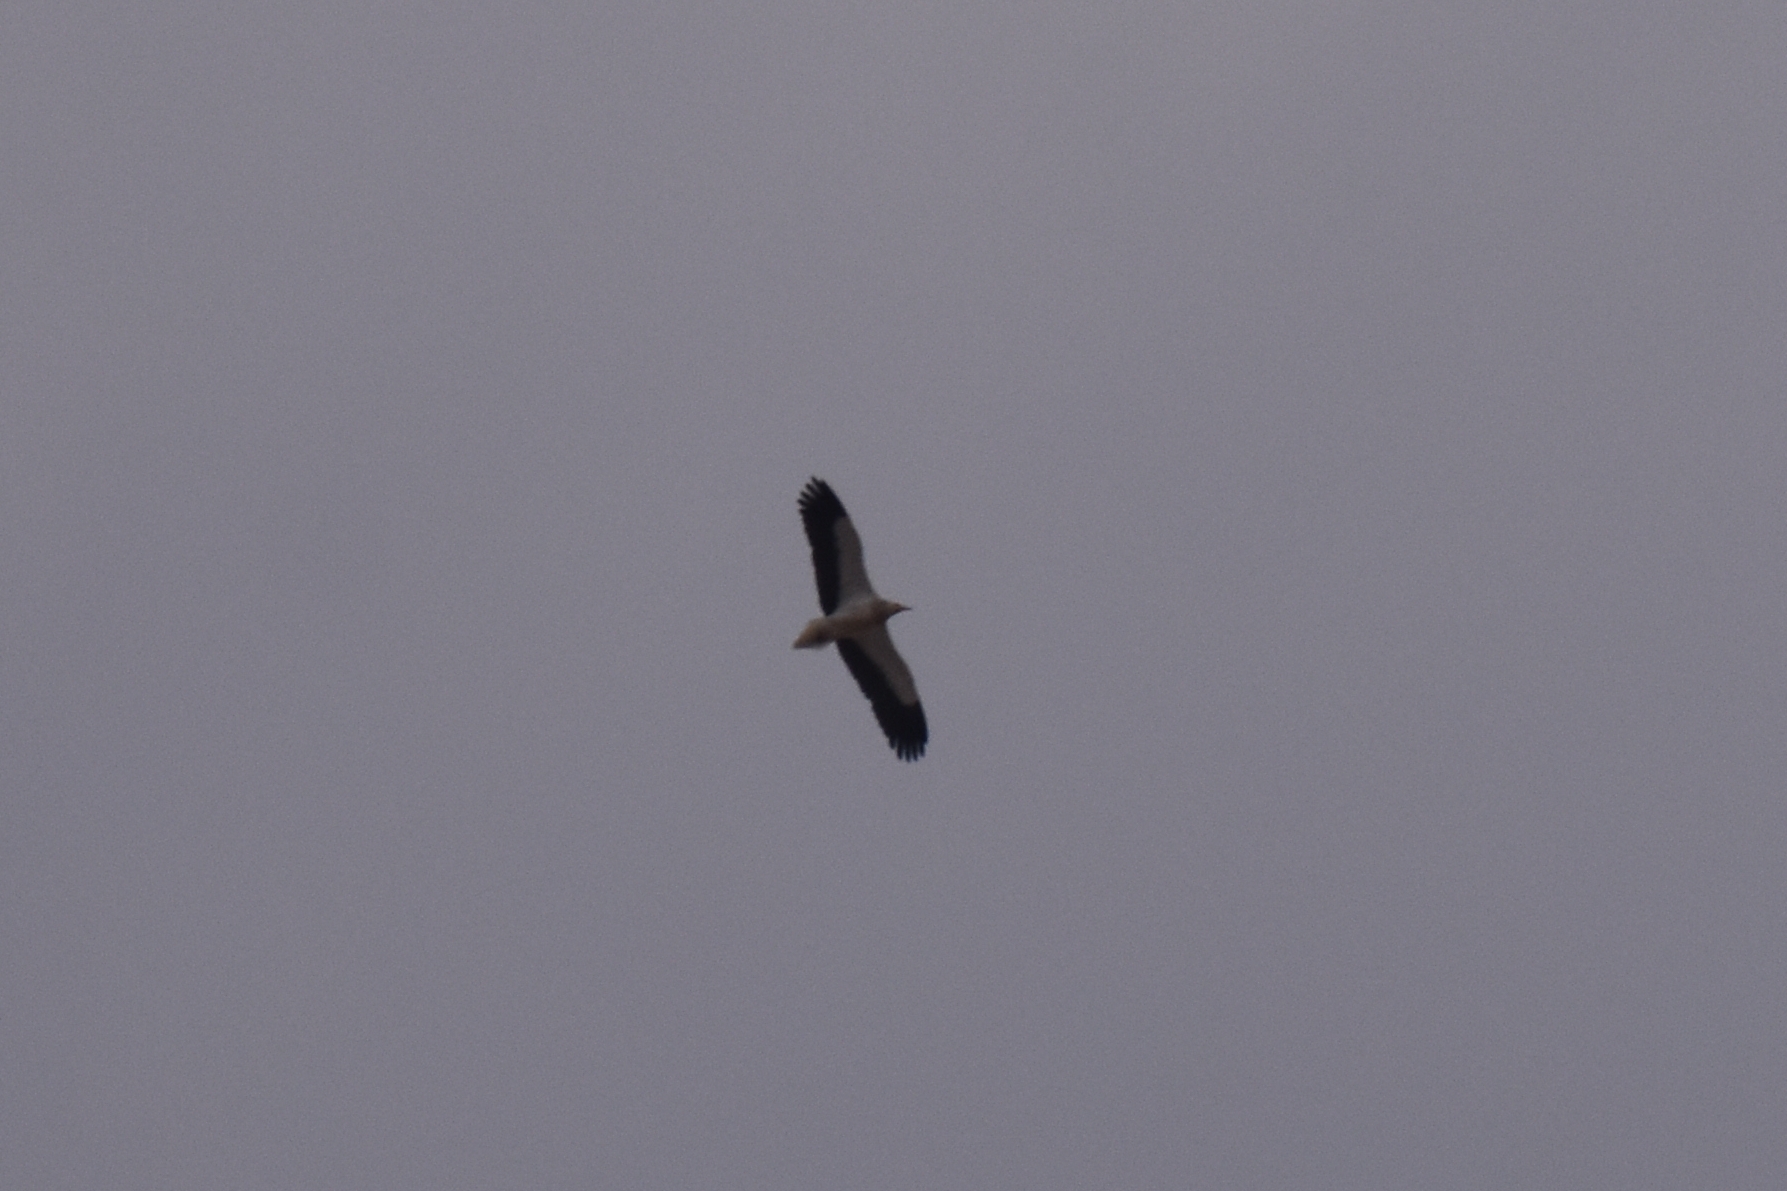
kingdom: Animalia
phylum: Chordata
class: Aves
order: Accipitriformes
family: Accipitridae
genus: Neophron
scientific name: Neophron percnopterus
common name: Egyptian vulture
